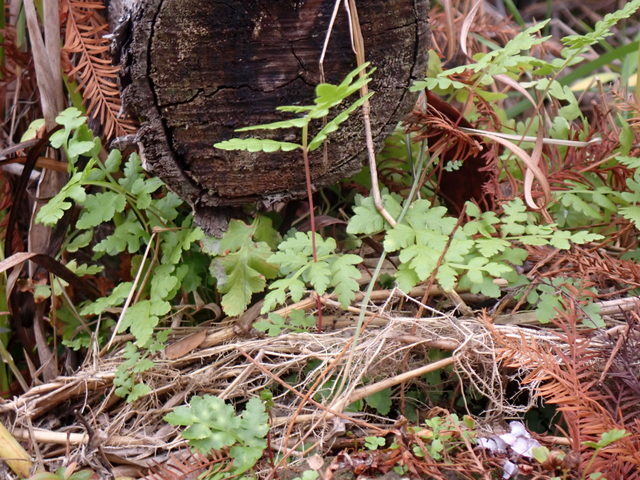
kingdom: Plantae
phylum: Tracheophyta
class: Polypodiopsida
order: Schizaeales
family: Lygodiaceae
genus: Lygodium
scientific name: Lygodium japonicum
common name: Japanese climbing fern
